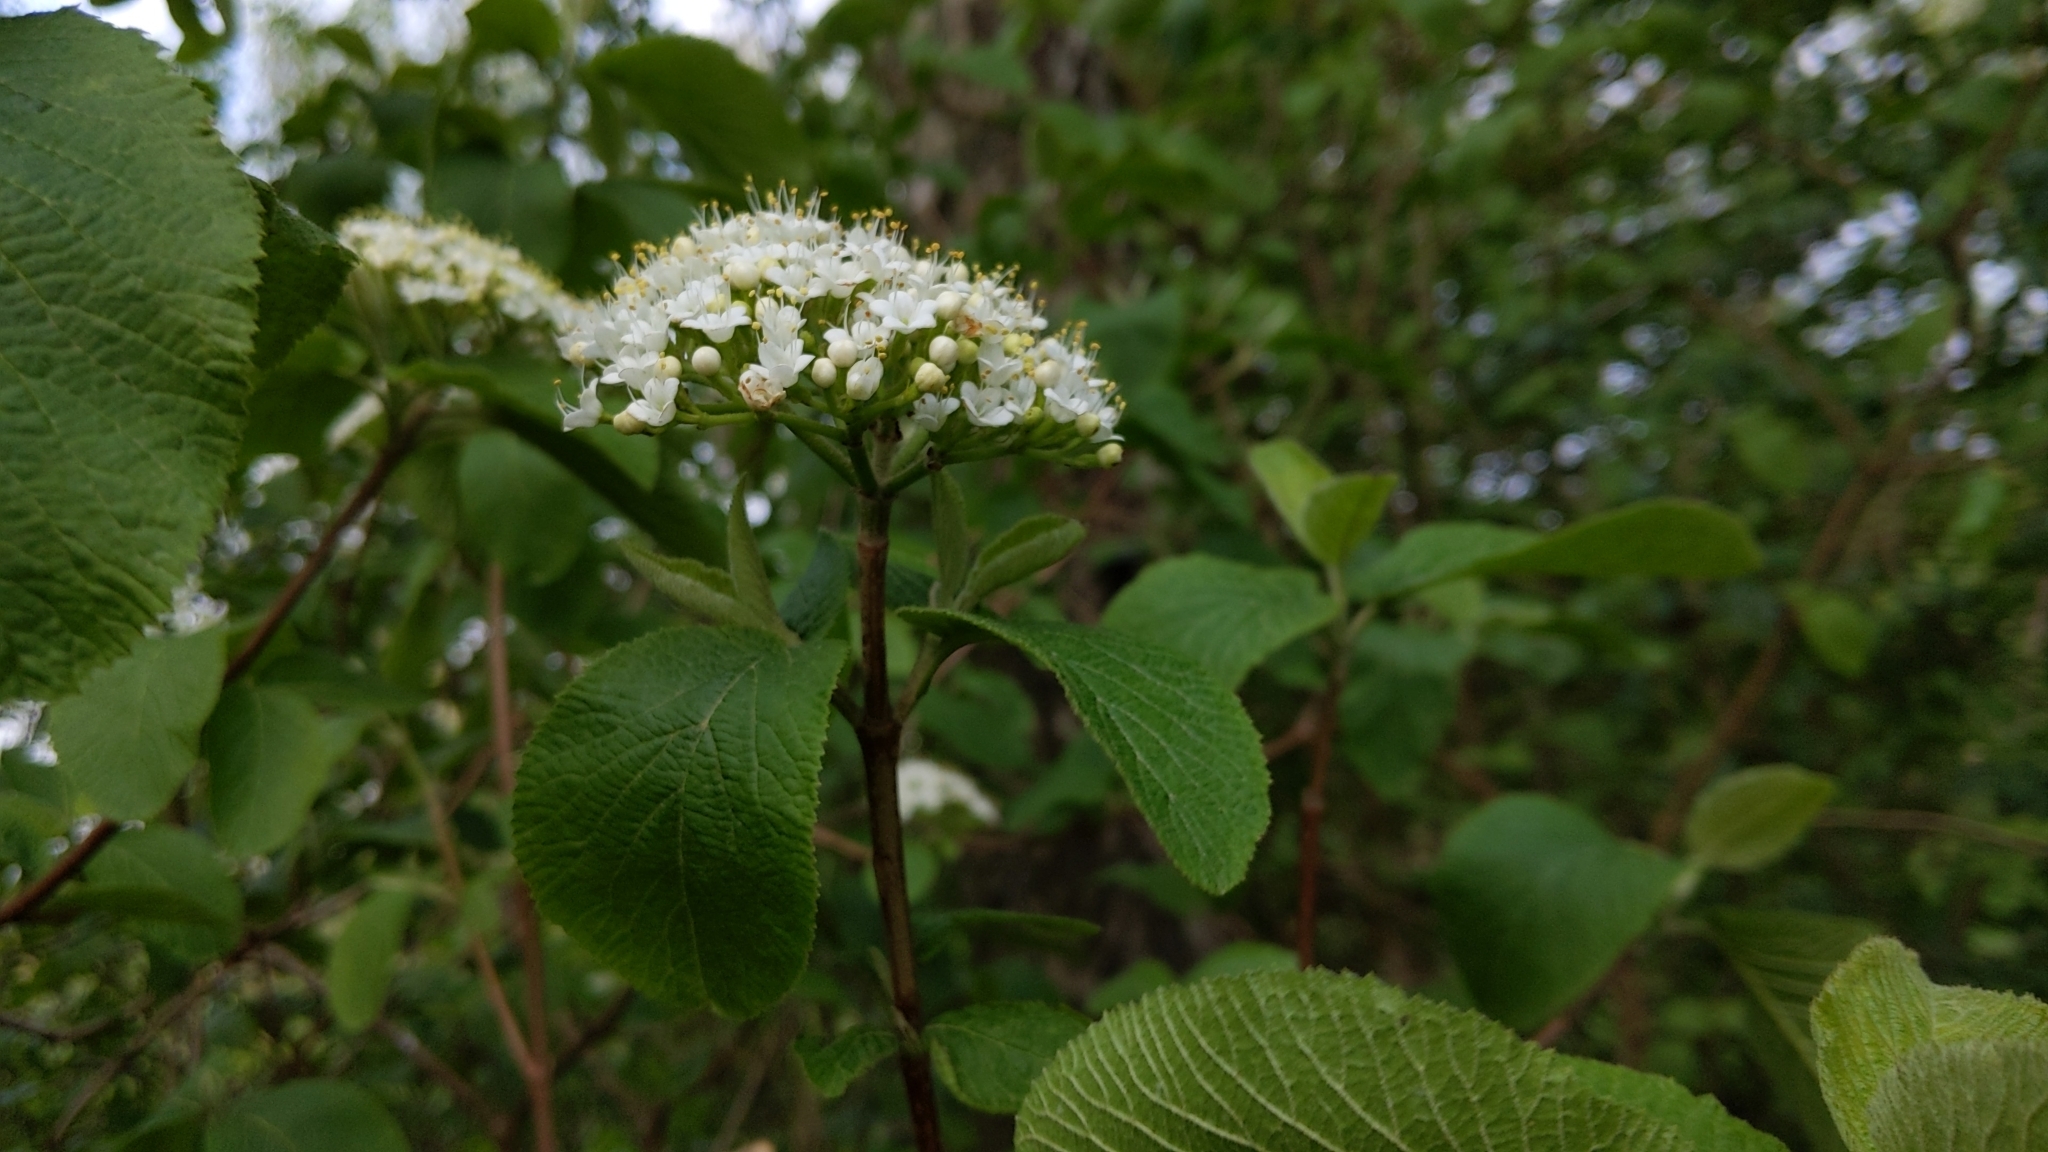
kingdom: Plantae
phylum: Tracheophyta
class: Magnoliopsida
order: Dipsacales
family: Viburnaceae
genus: Viburnum
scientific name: Viburnum lantana
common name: Wayfaring tree
